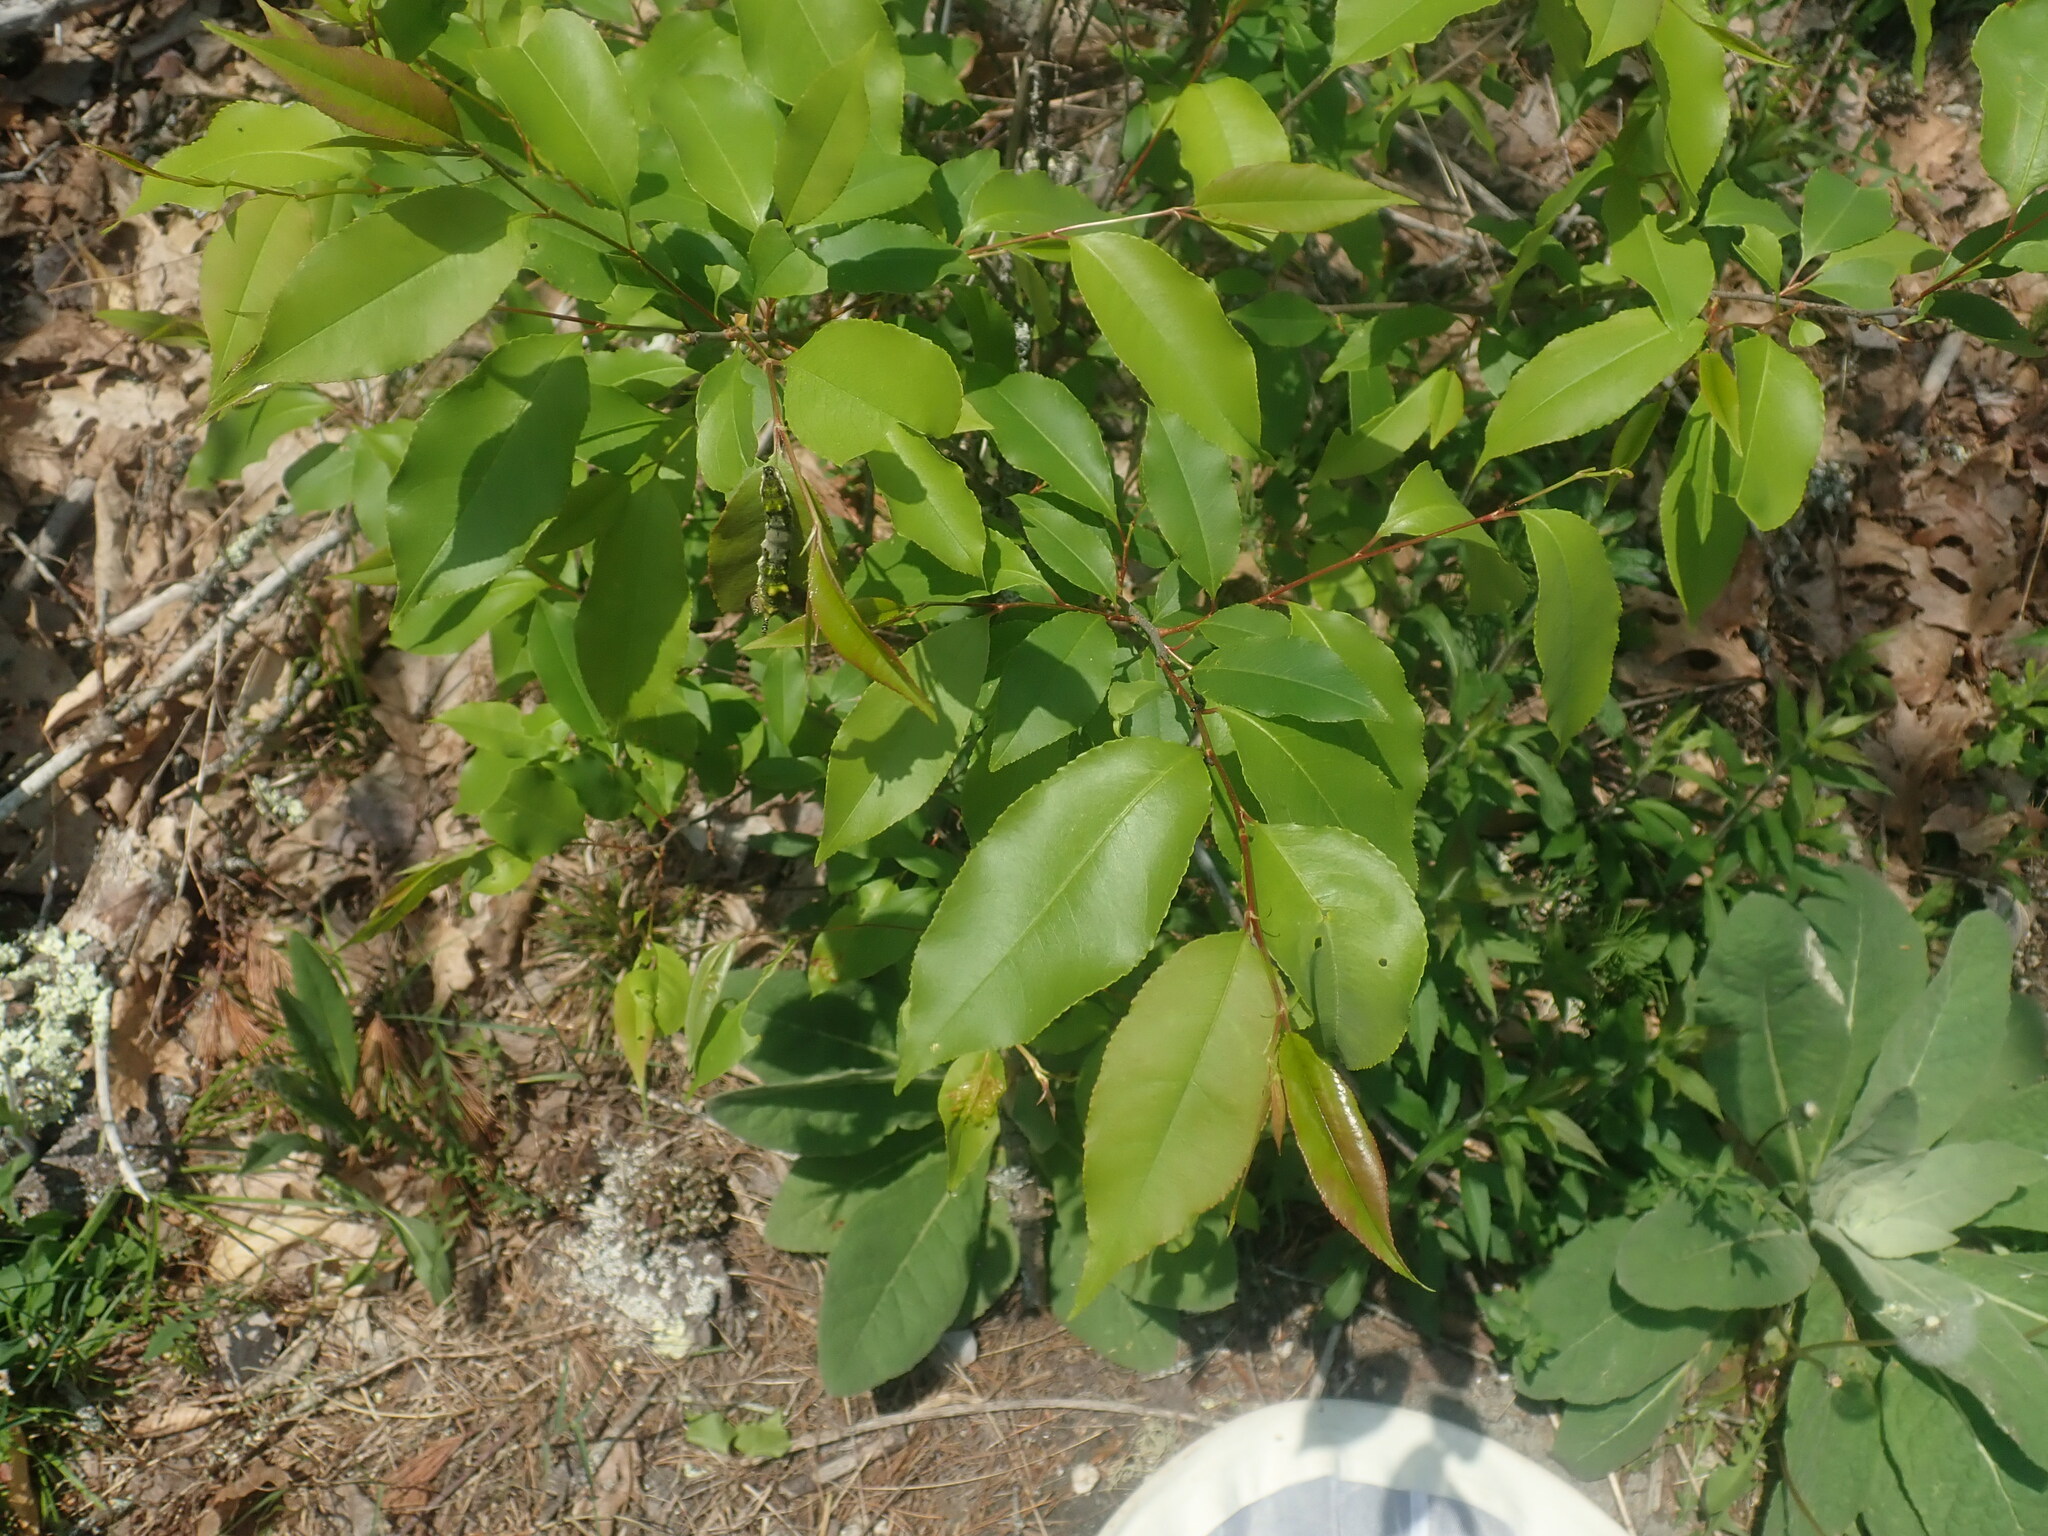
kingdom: Plantae
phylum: Tracheophyta
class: Magnoliopsida
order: Rosales
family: Rosaceae
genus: Prunus
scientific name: Prunus serotina
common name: Black cherry
